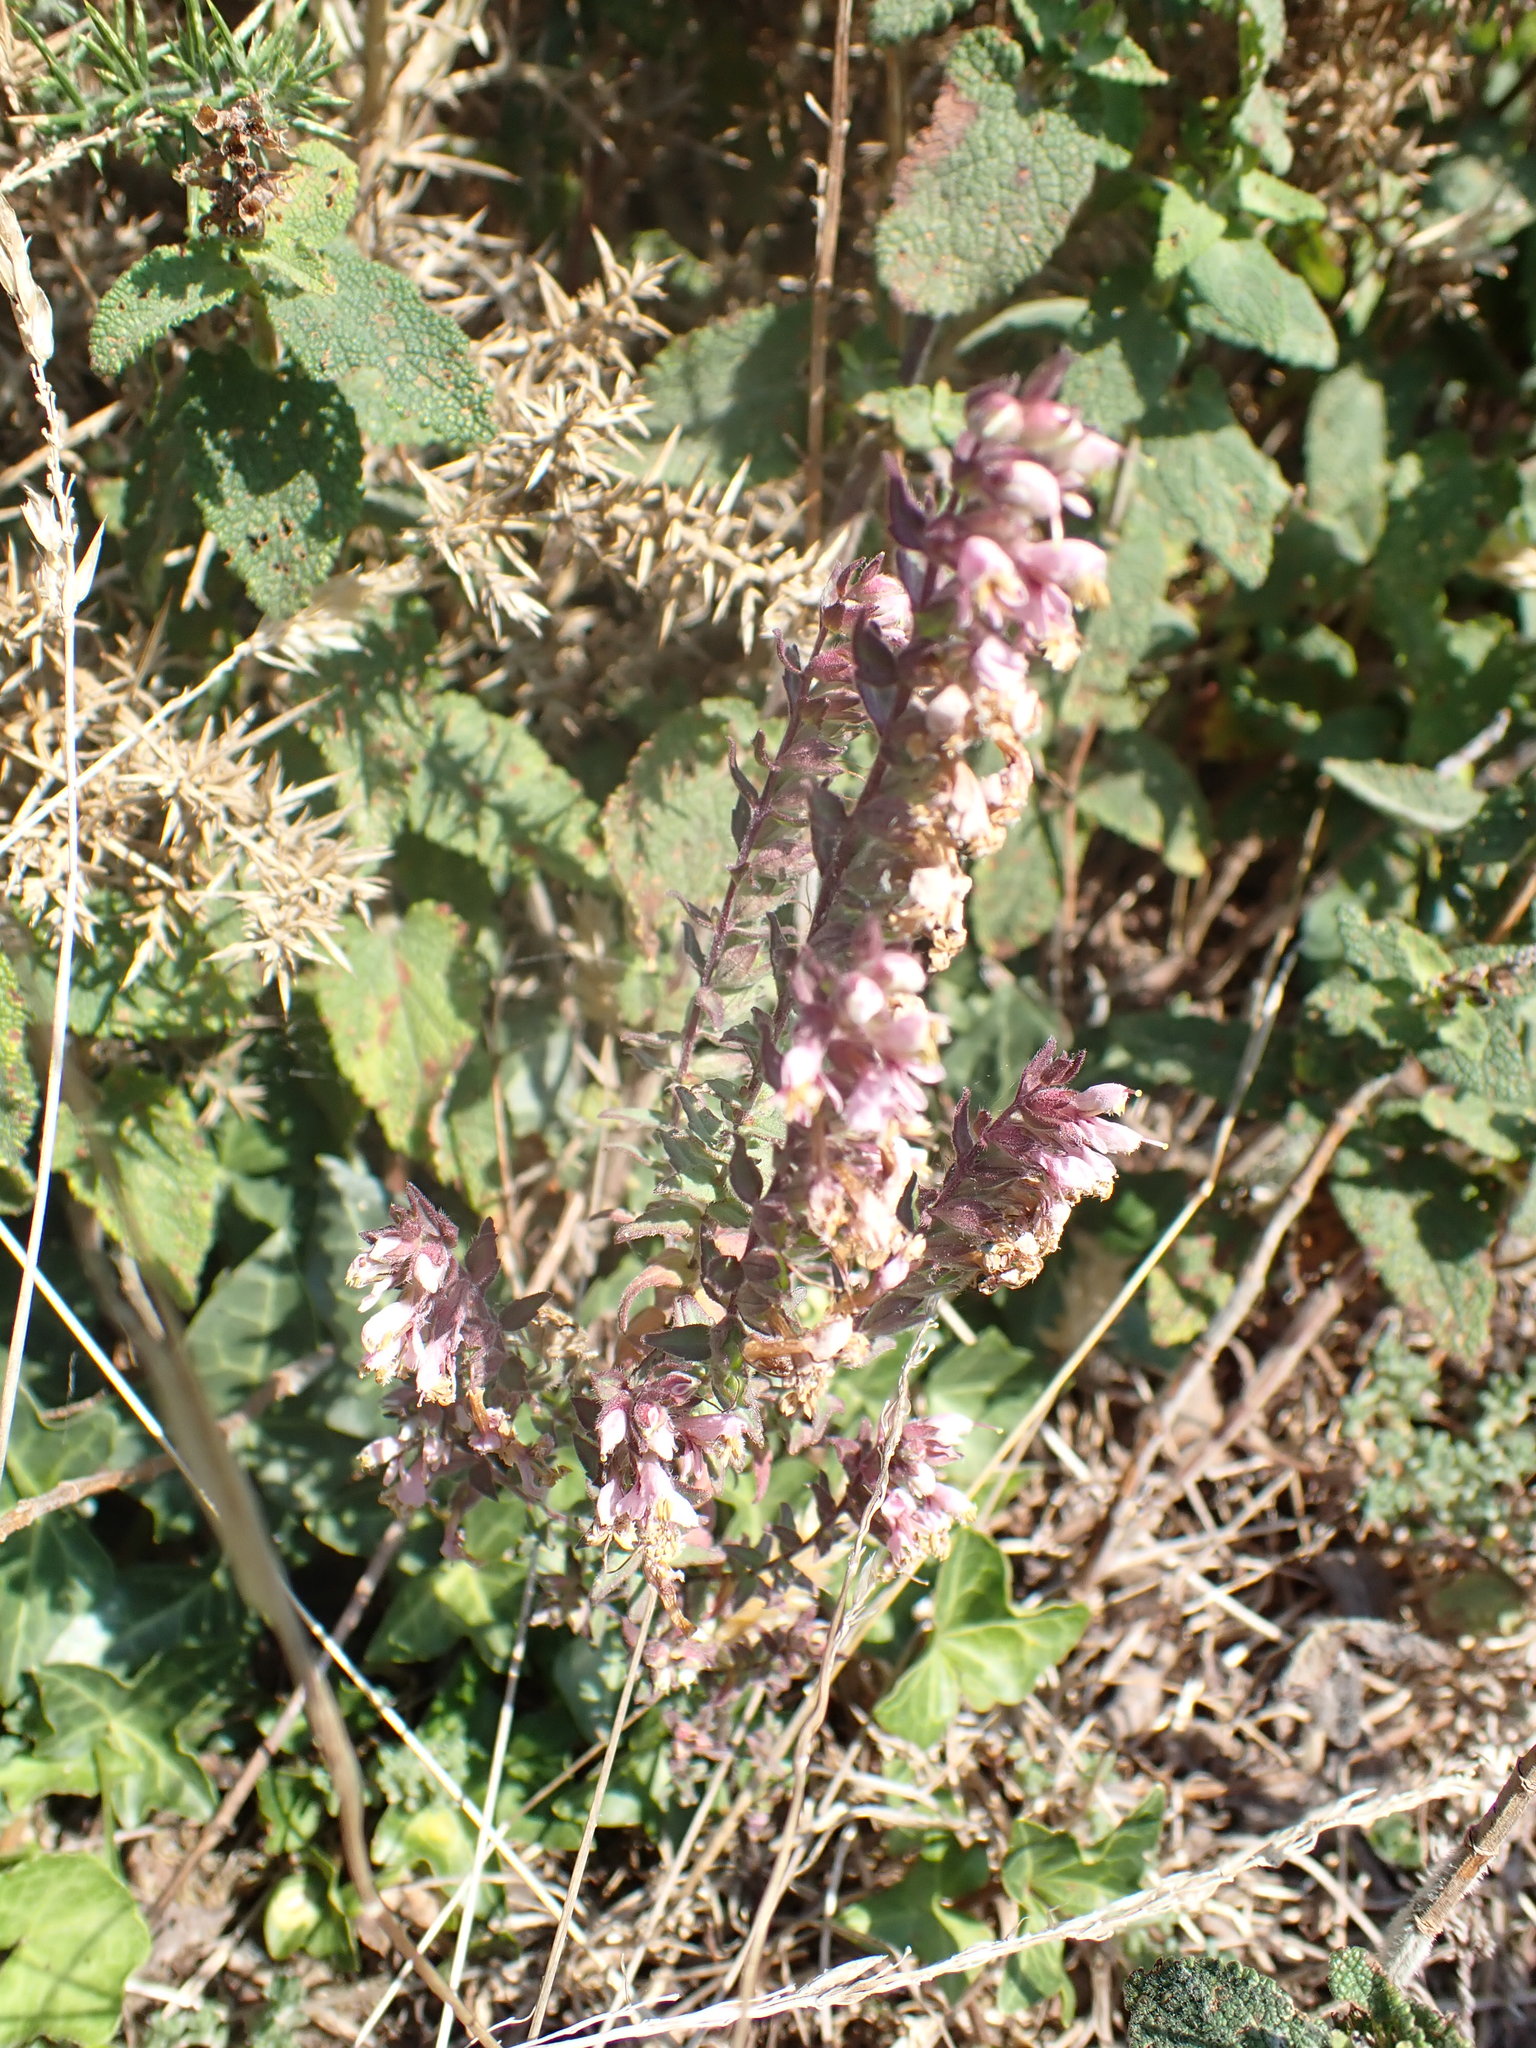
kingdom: Plantae
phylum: Tracheophyta
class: Magnoliopsida
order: Lamiales
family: Orobanchaceae
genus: Odontites
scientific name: Odontites vulgaris
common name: Broomrape
